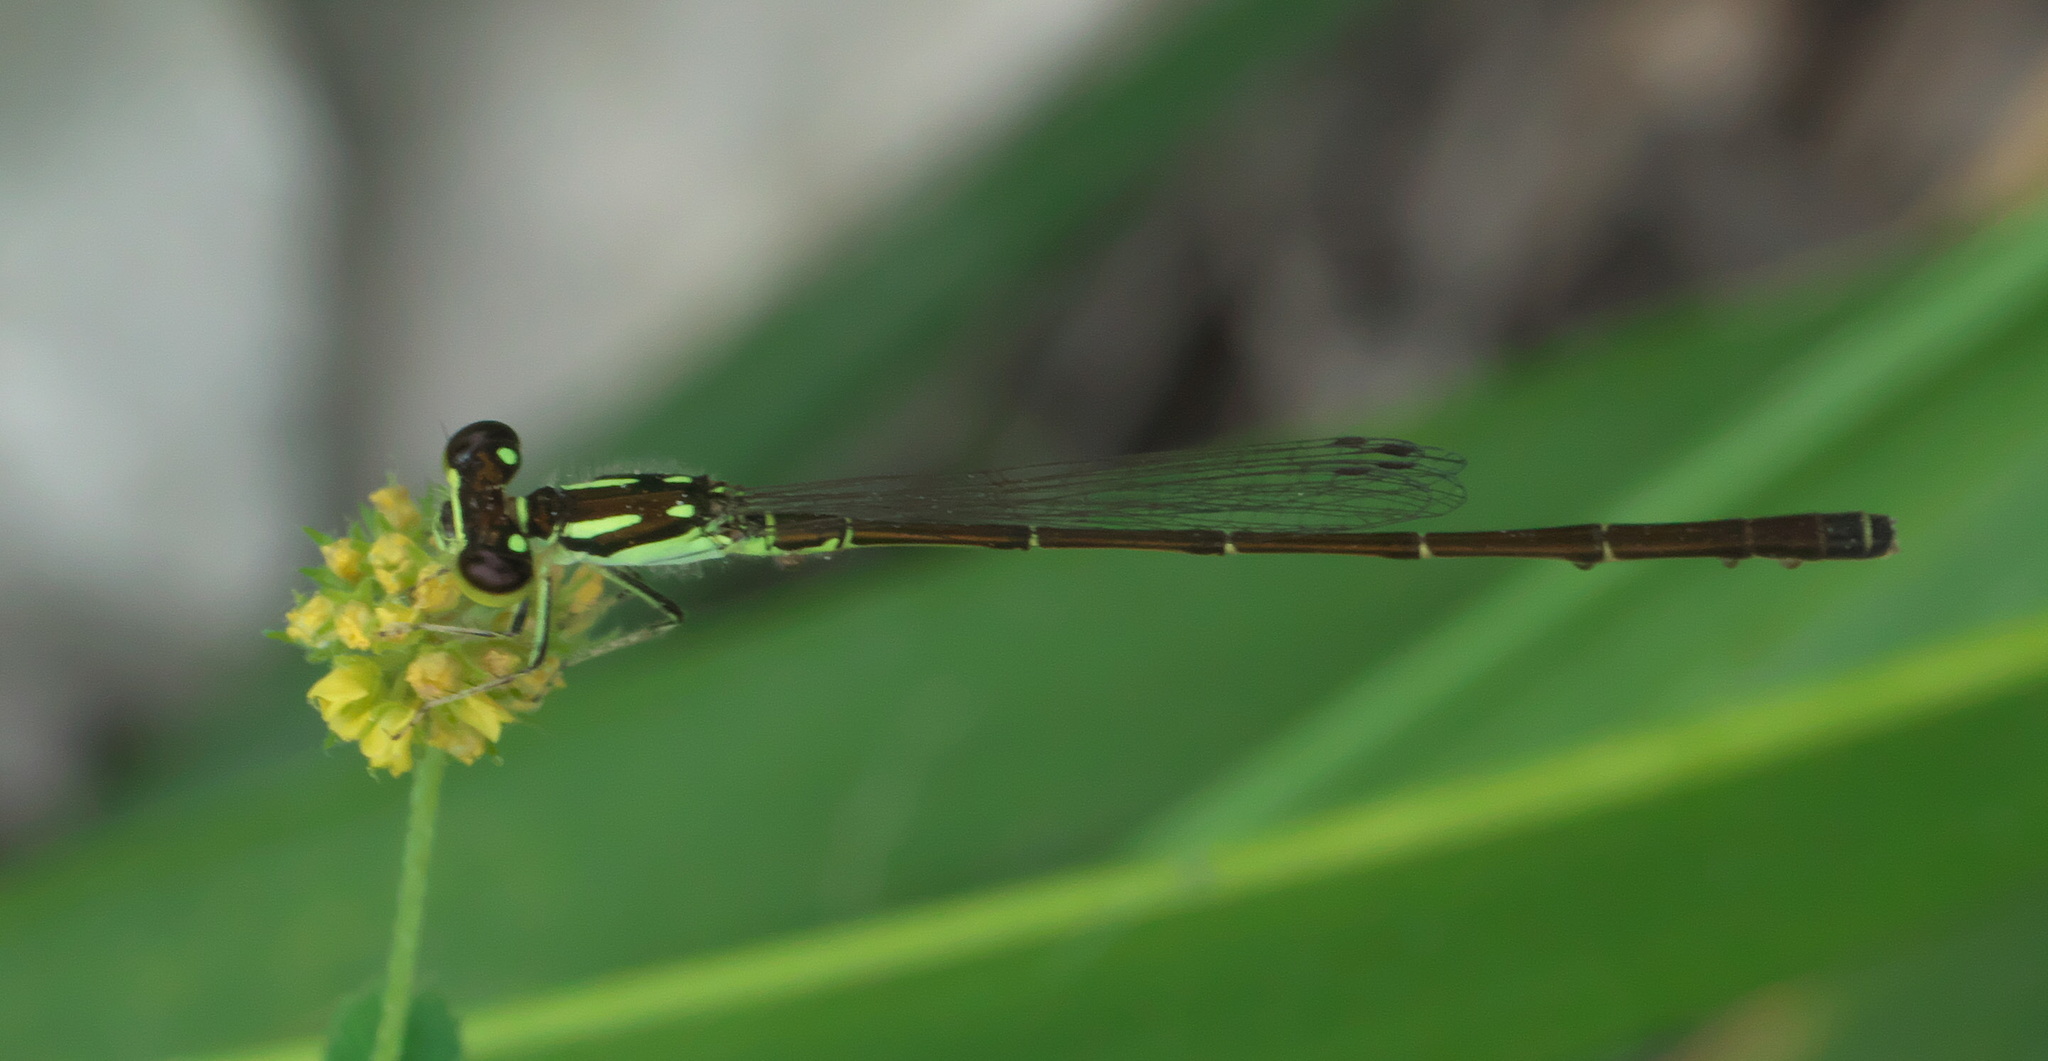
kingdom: Animalia
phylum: Arthropoda
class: Insecta
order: Odonata
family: Coenagrionidae
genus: Ischnura
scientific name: Ischnura posita
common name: Fragile forktail
